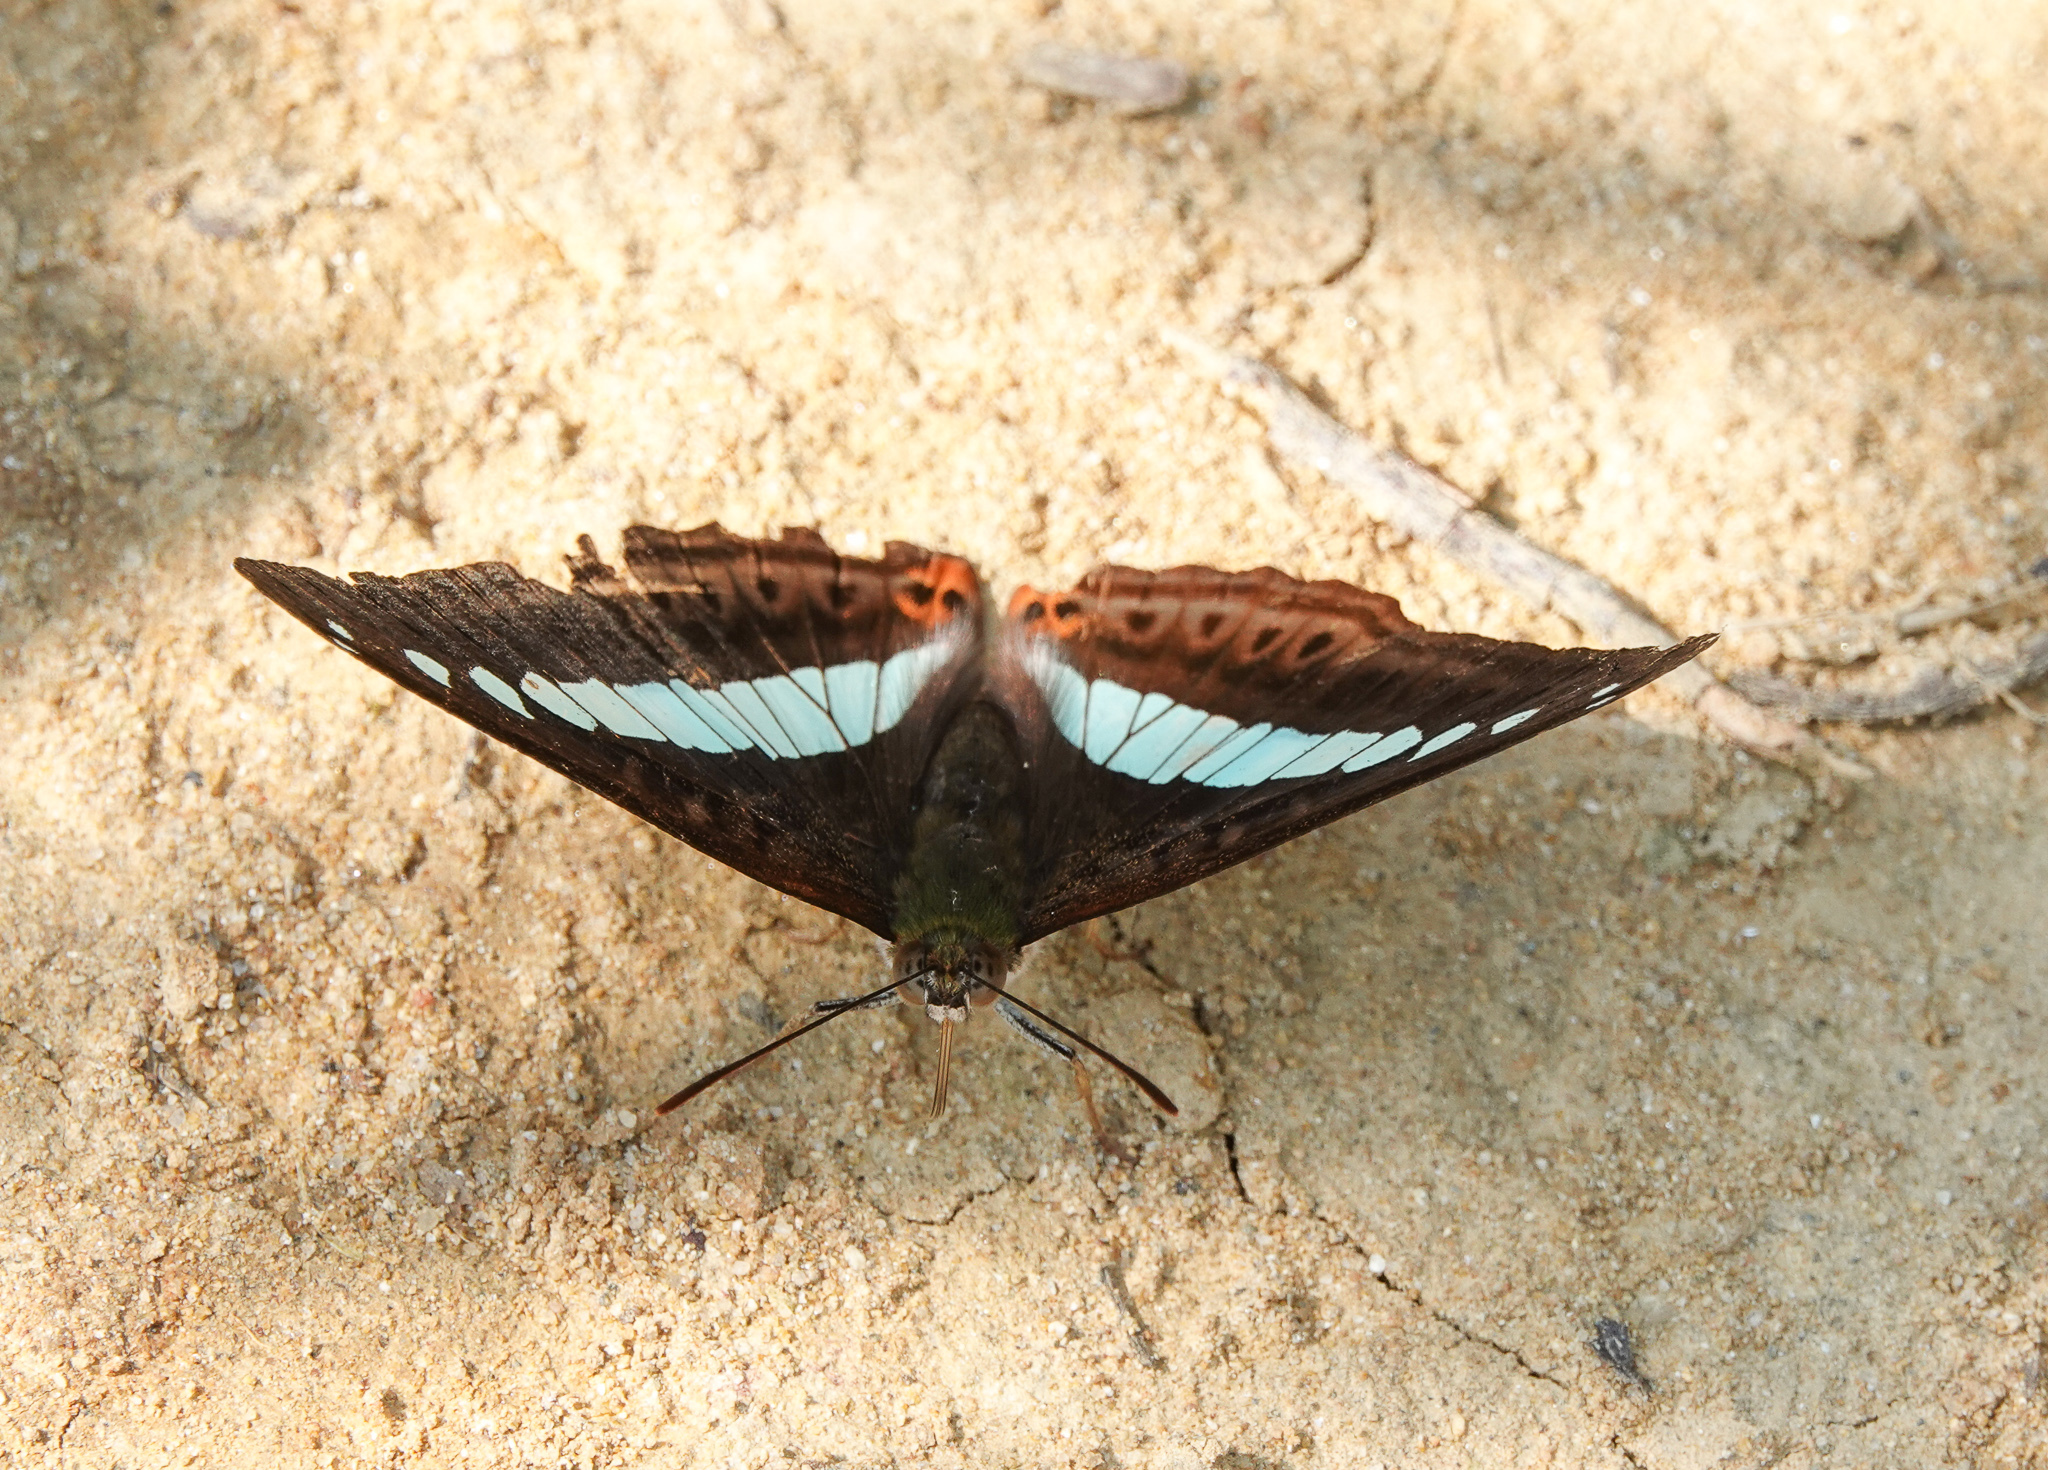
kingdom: Animalia
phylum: Arthropoda
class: Insecta
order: Lepidoptera
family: Nymphalidae
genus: Limenitis
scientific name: Limenitis Sumalia daraxa
